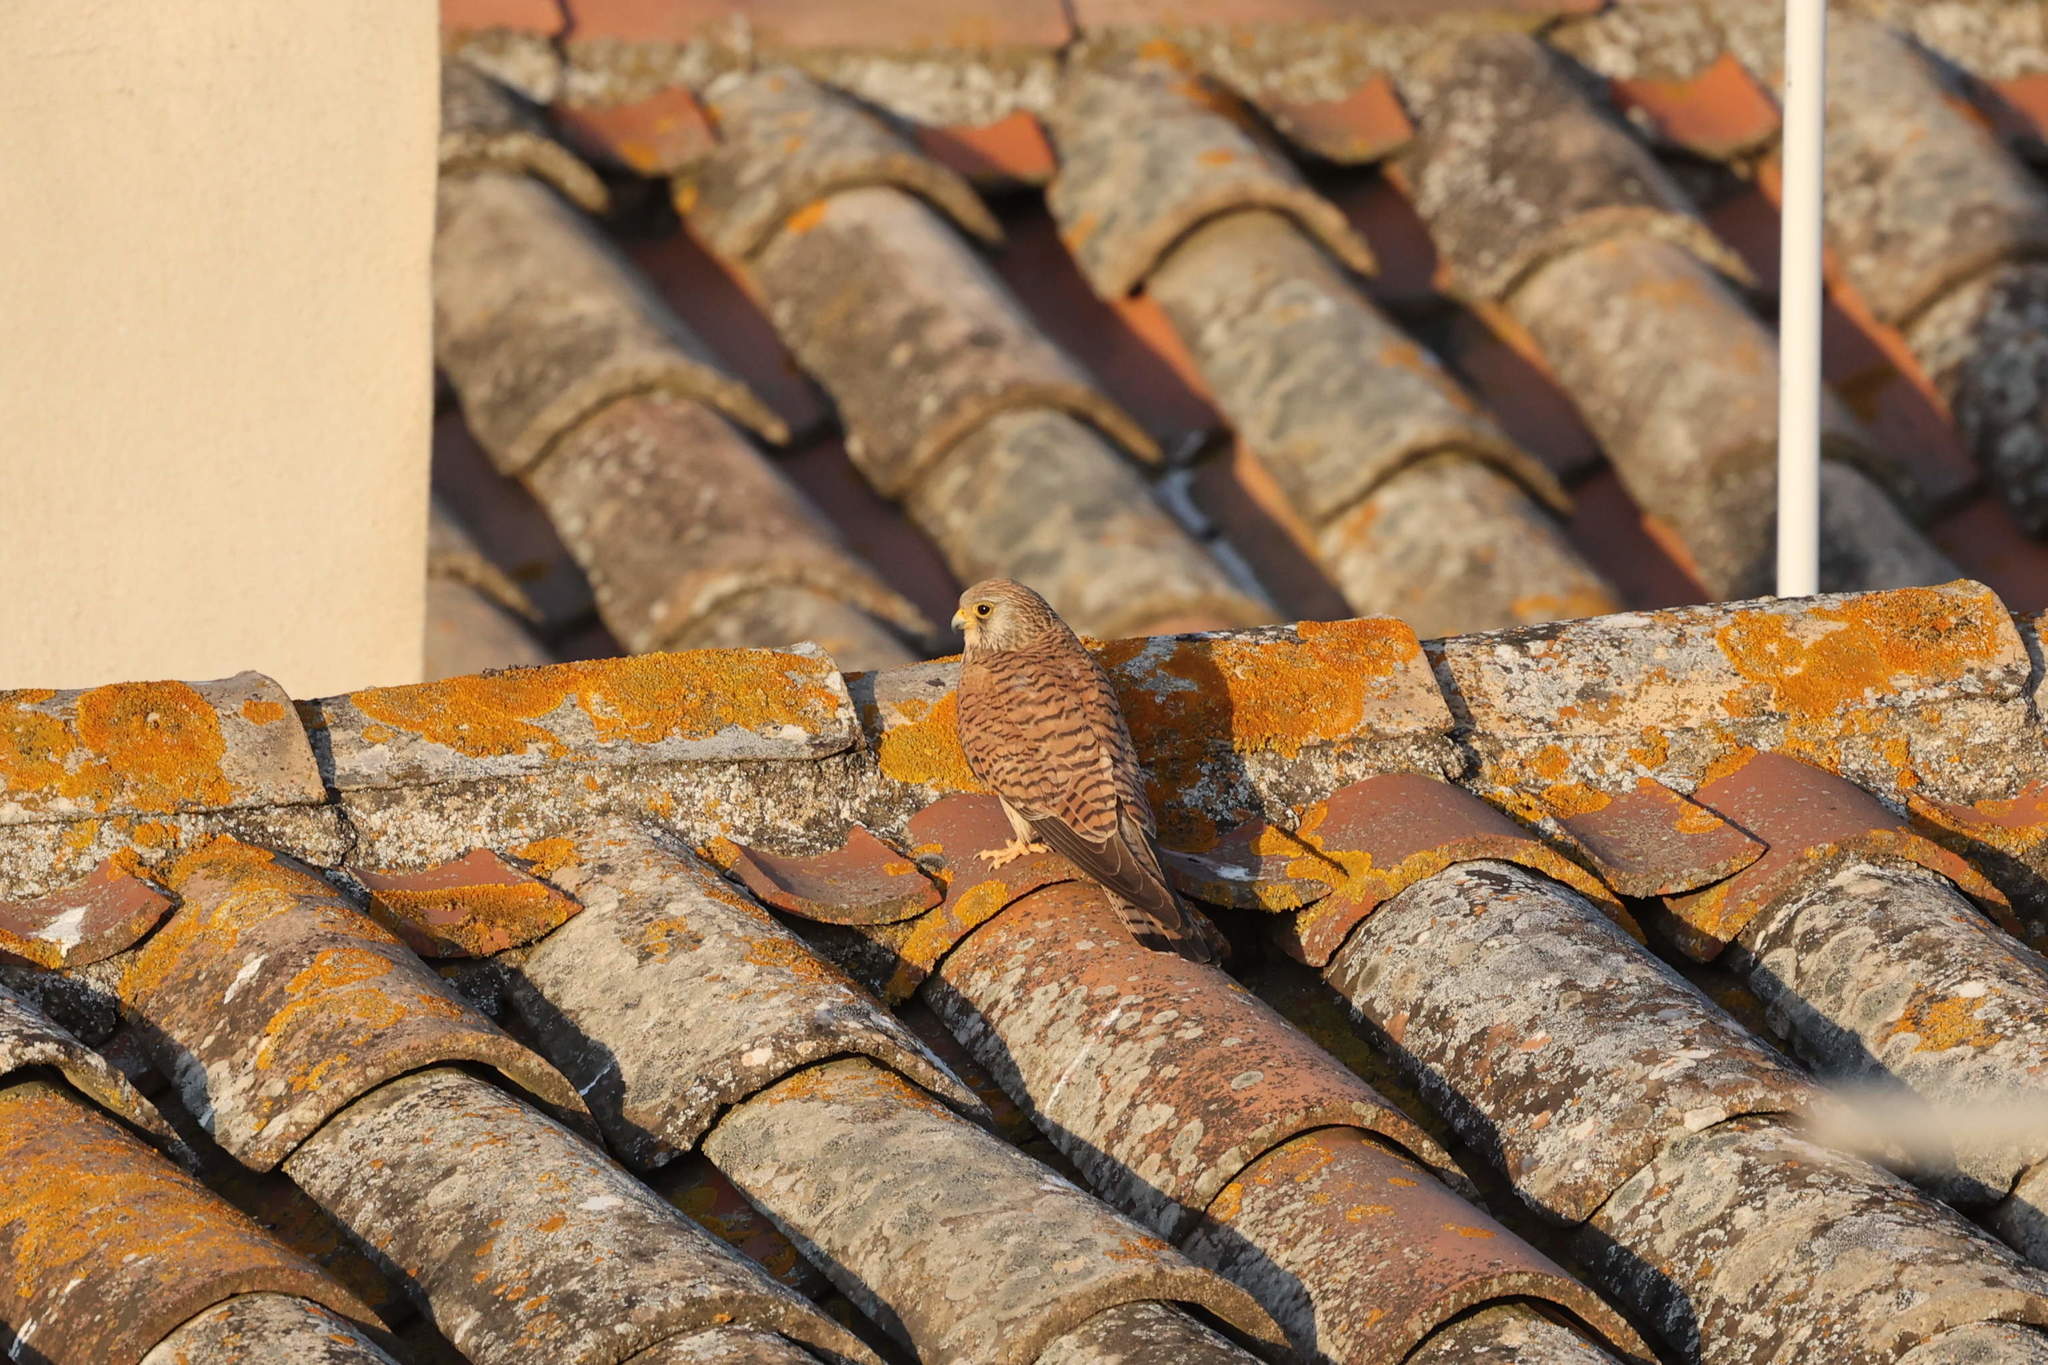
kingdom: Animalia
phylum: Chordata
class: Aves
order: Falconiformes
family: Falconidae
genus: Falco
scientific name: Falco naumanni
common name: Lesser kestrel
